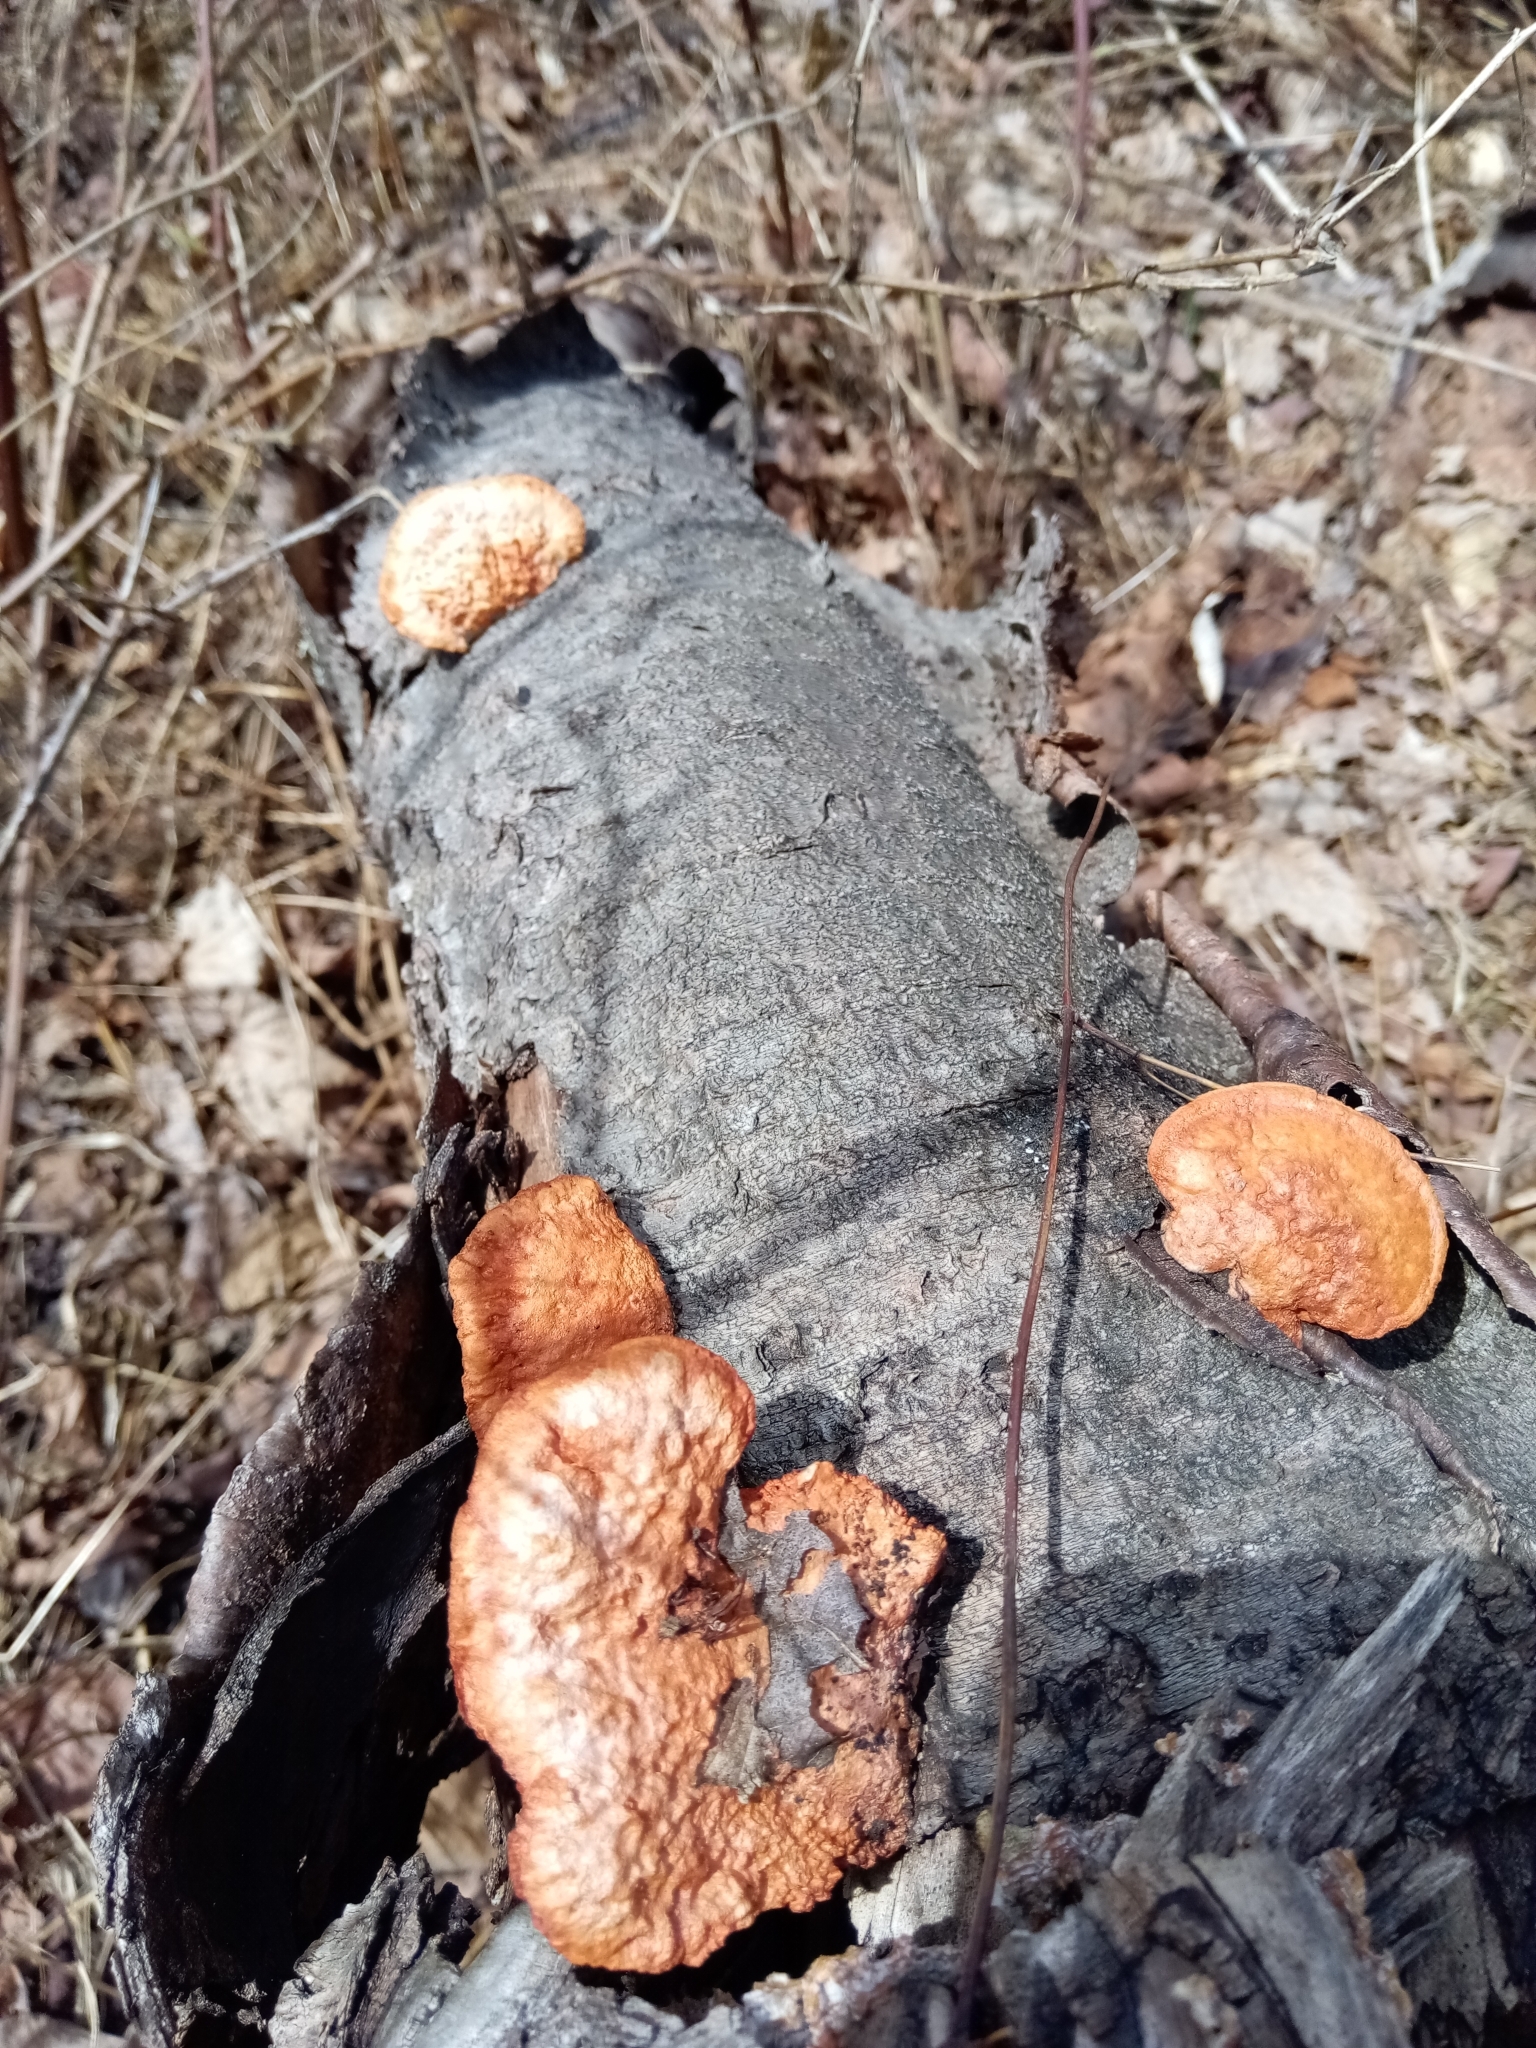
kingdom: Fungi
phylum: Basidiomycota
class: Agaricomycetes
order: Polyporales
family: Polyporaceae
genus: Trametes
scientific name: Trametes cinnabarina
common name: Northern cinnabar polypore
